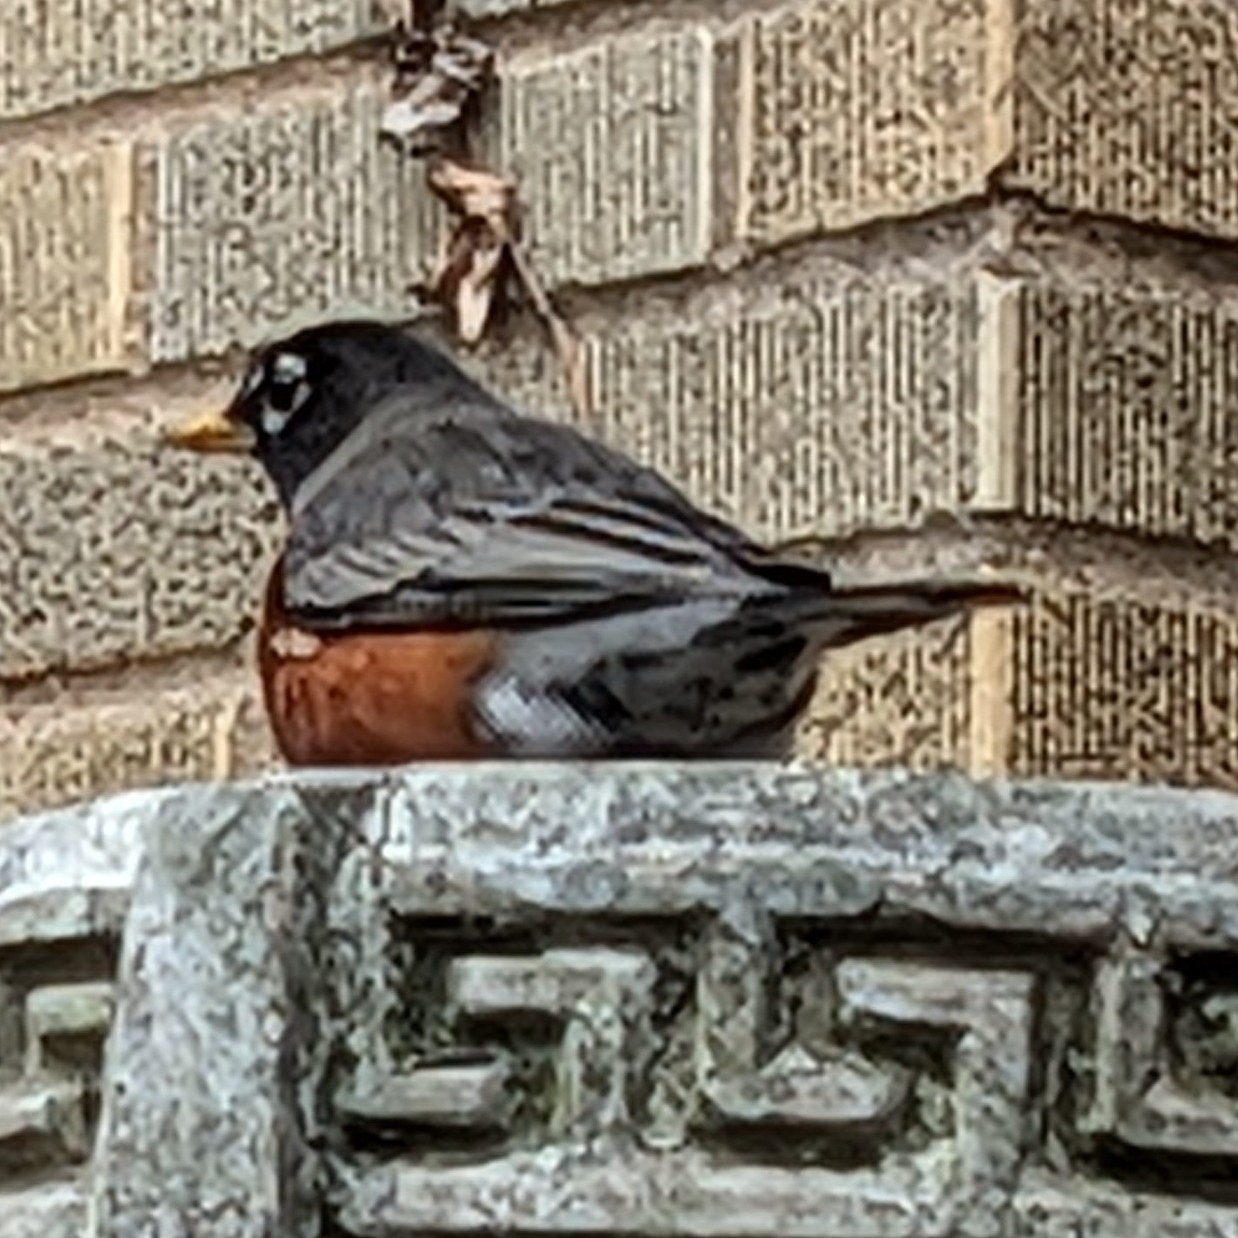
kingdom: Animalia
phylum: Chordata
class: Aves
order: Passeriformes
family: Turdidae
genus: Turdus
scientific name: Turdus migratorius
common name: American robin
